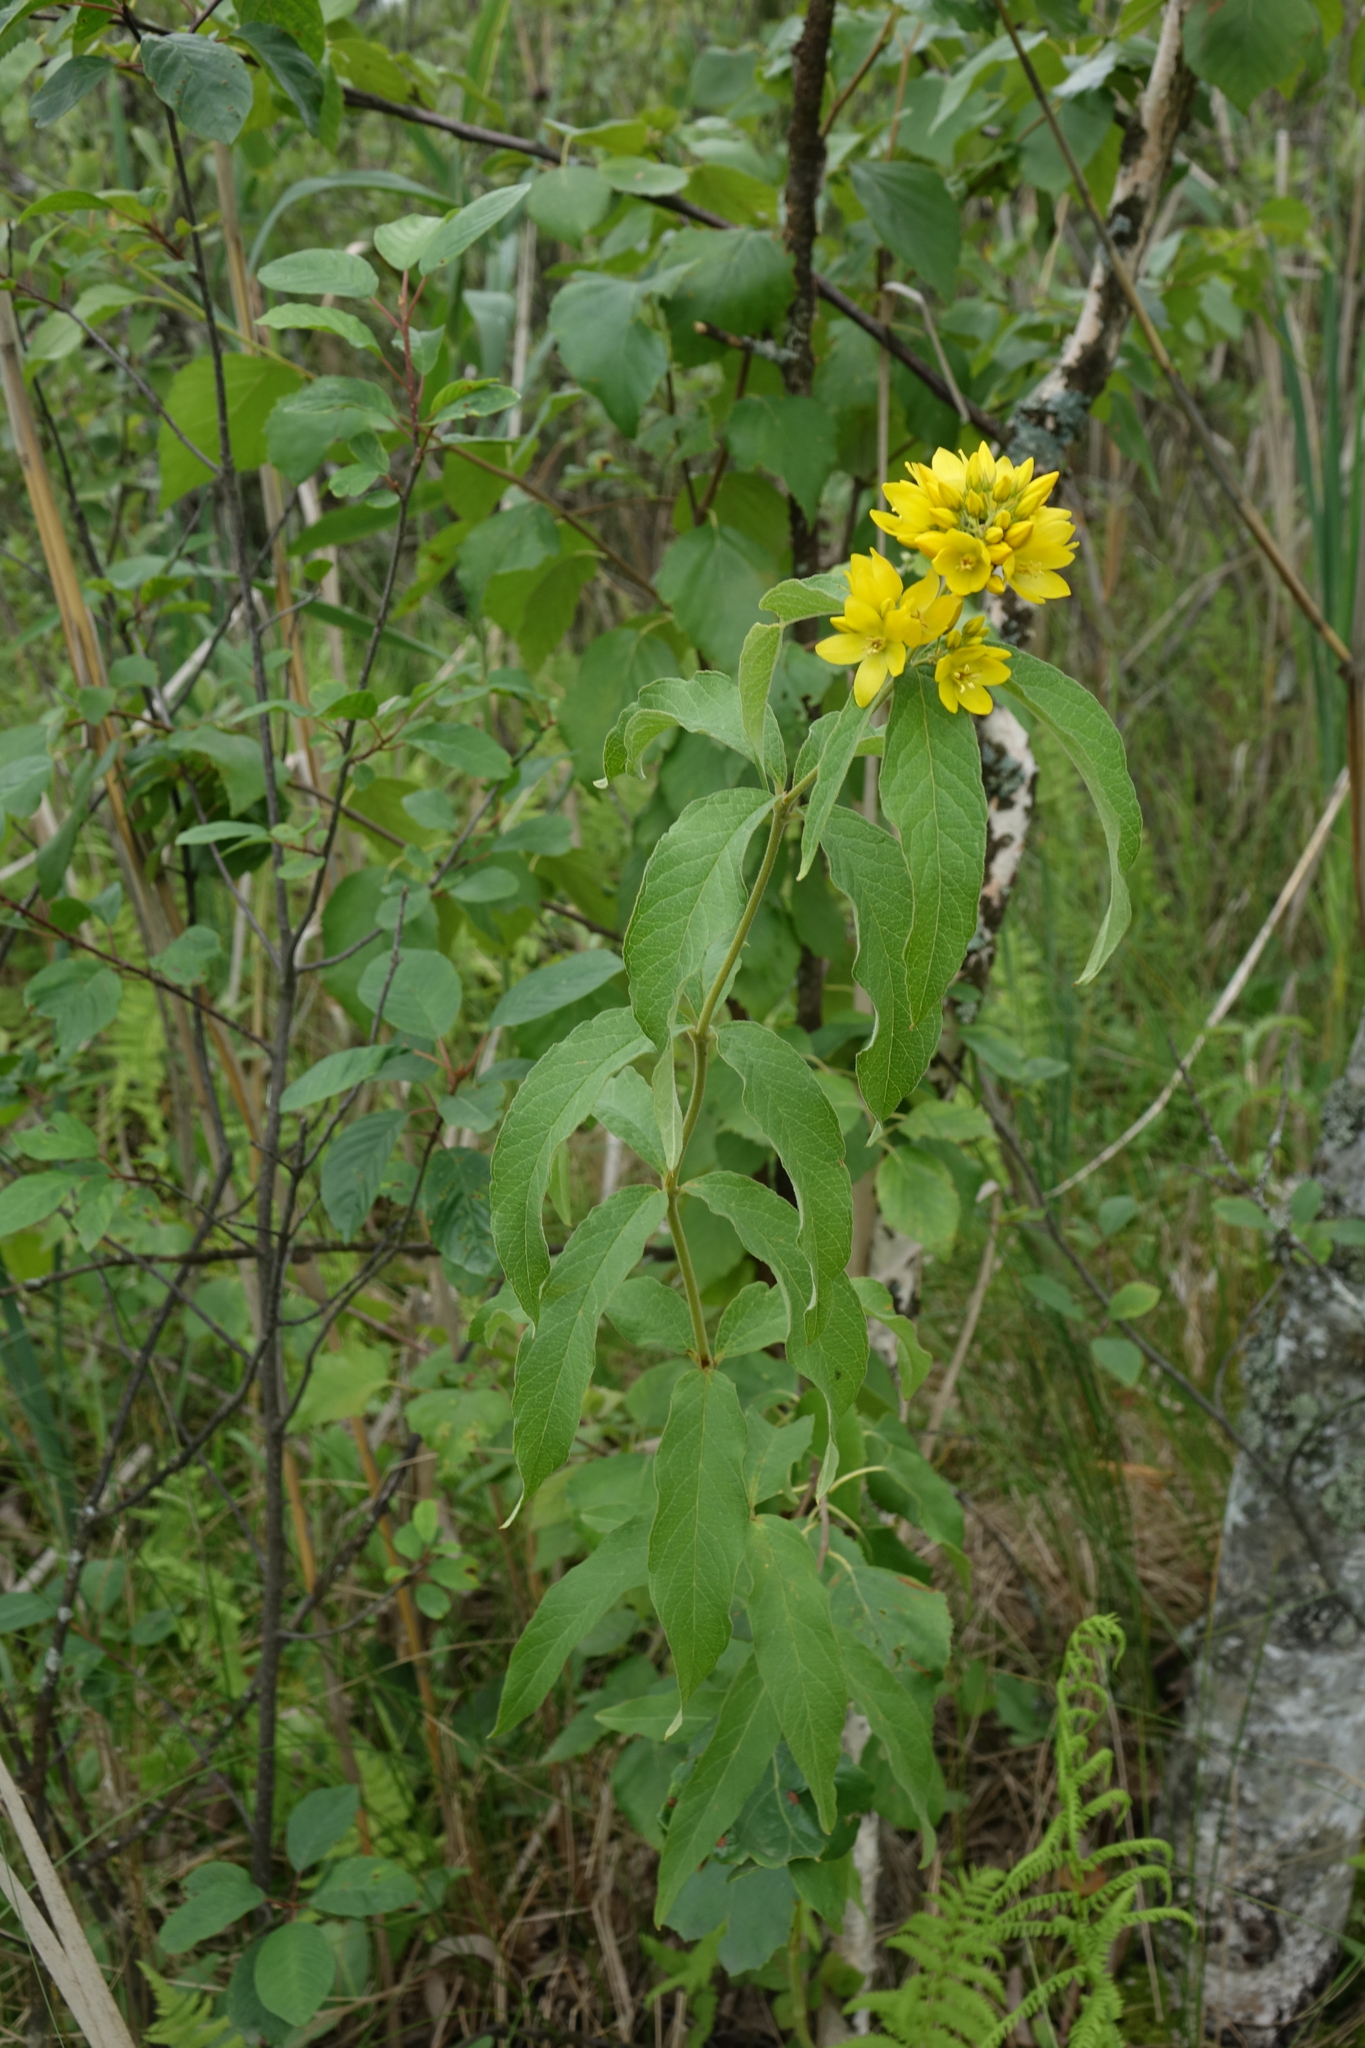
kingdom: Plantae
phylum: Tracheophyta
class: Magnoliopsida
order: Ericales
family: Primulaceae
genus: Lysimachia
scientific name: Lysimachia vulgaris
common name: Yellow loosestrife
